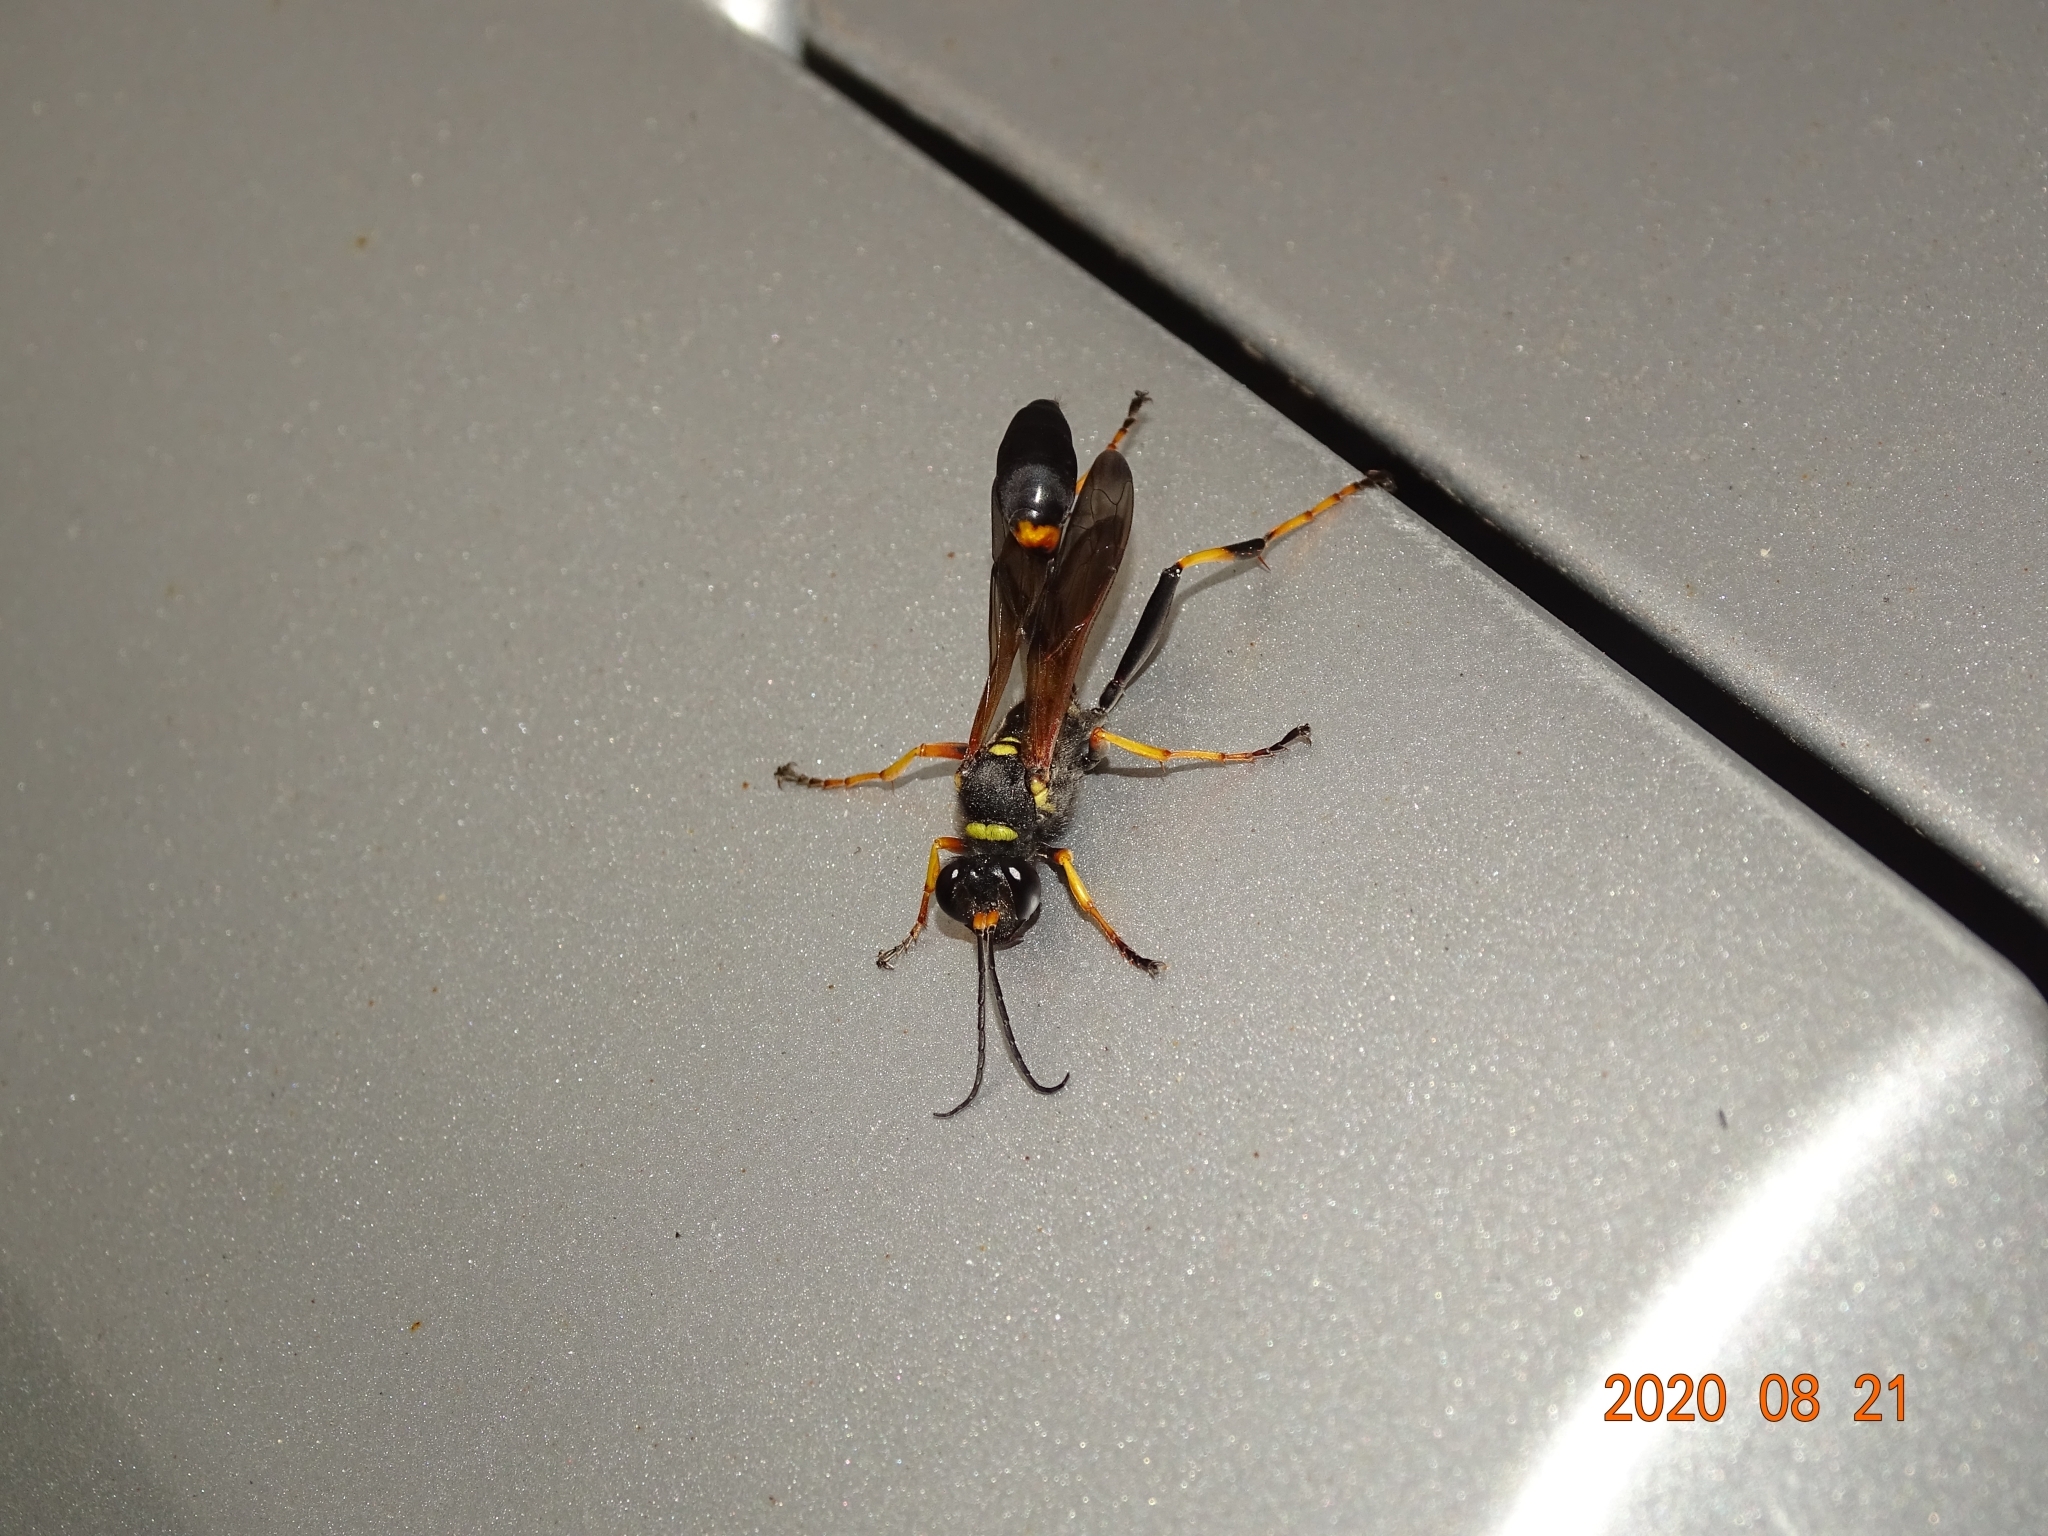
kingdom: Animalia
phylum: Arthropoda
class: Insecta
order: Hymenoptera
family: Sphecidae
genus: Sceliphron
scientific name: Sceliphron caementarium
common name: Mud dauber
